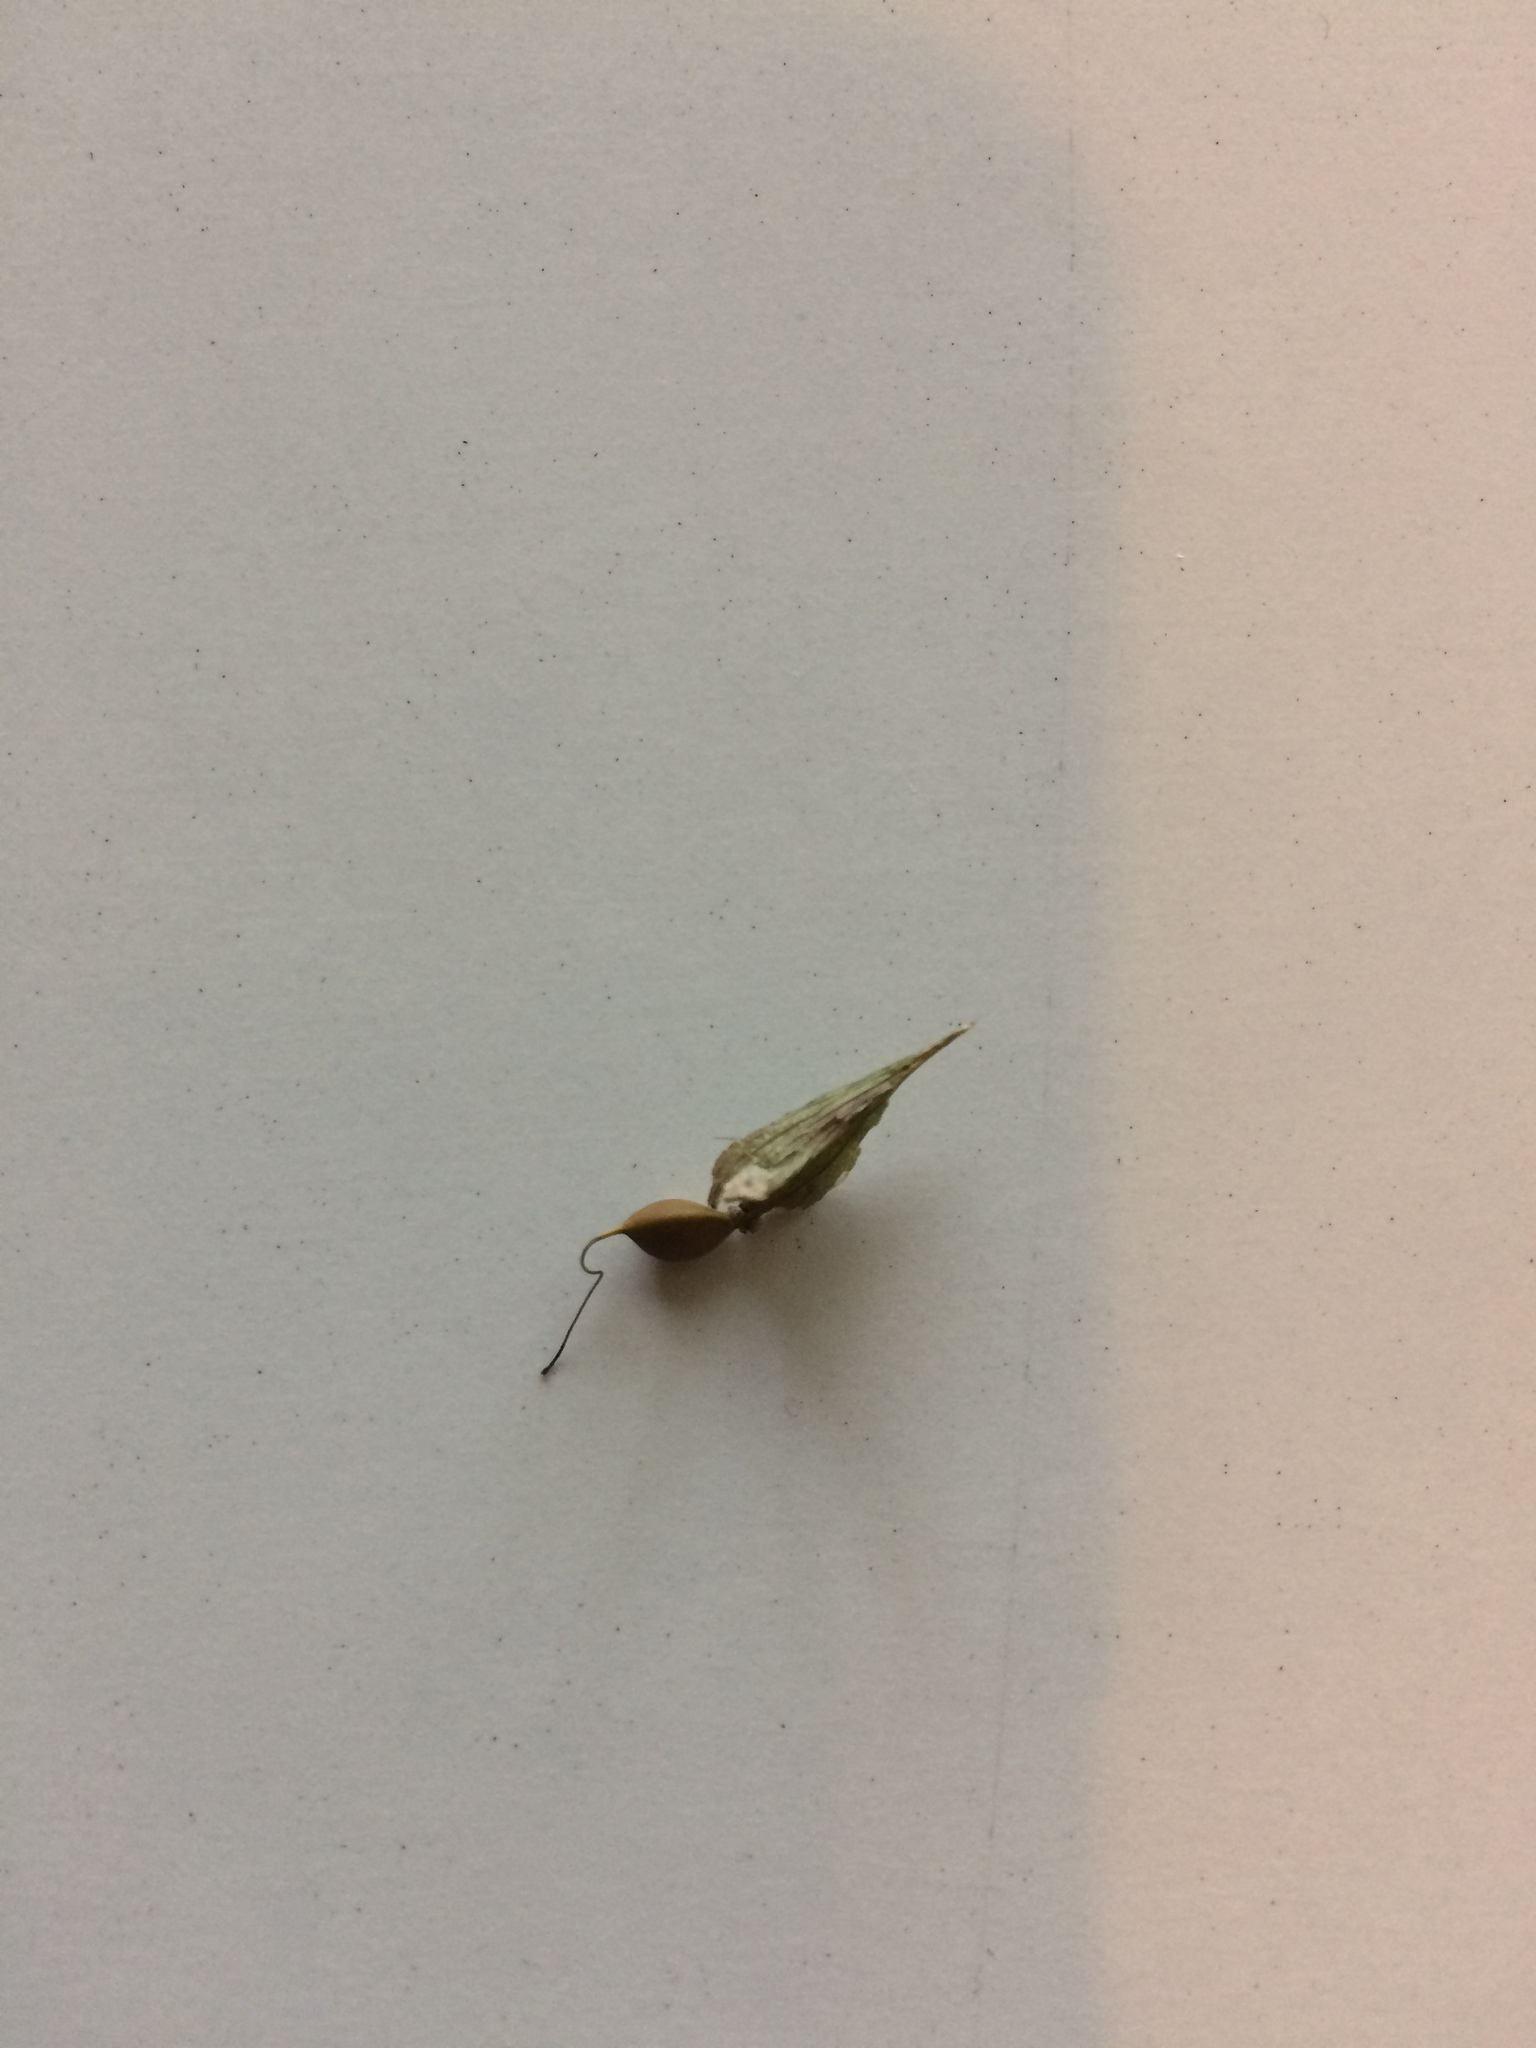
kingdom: Plantae
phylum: Tracheophyta
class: Liliopsida
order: Poales
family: Cyperaceae
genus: Carex
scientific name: Carex intumescens
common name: Greater bladder sedge
